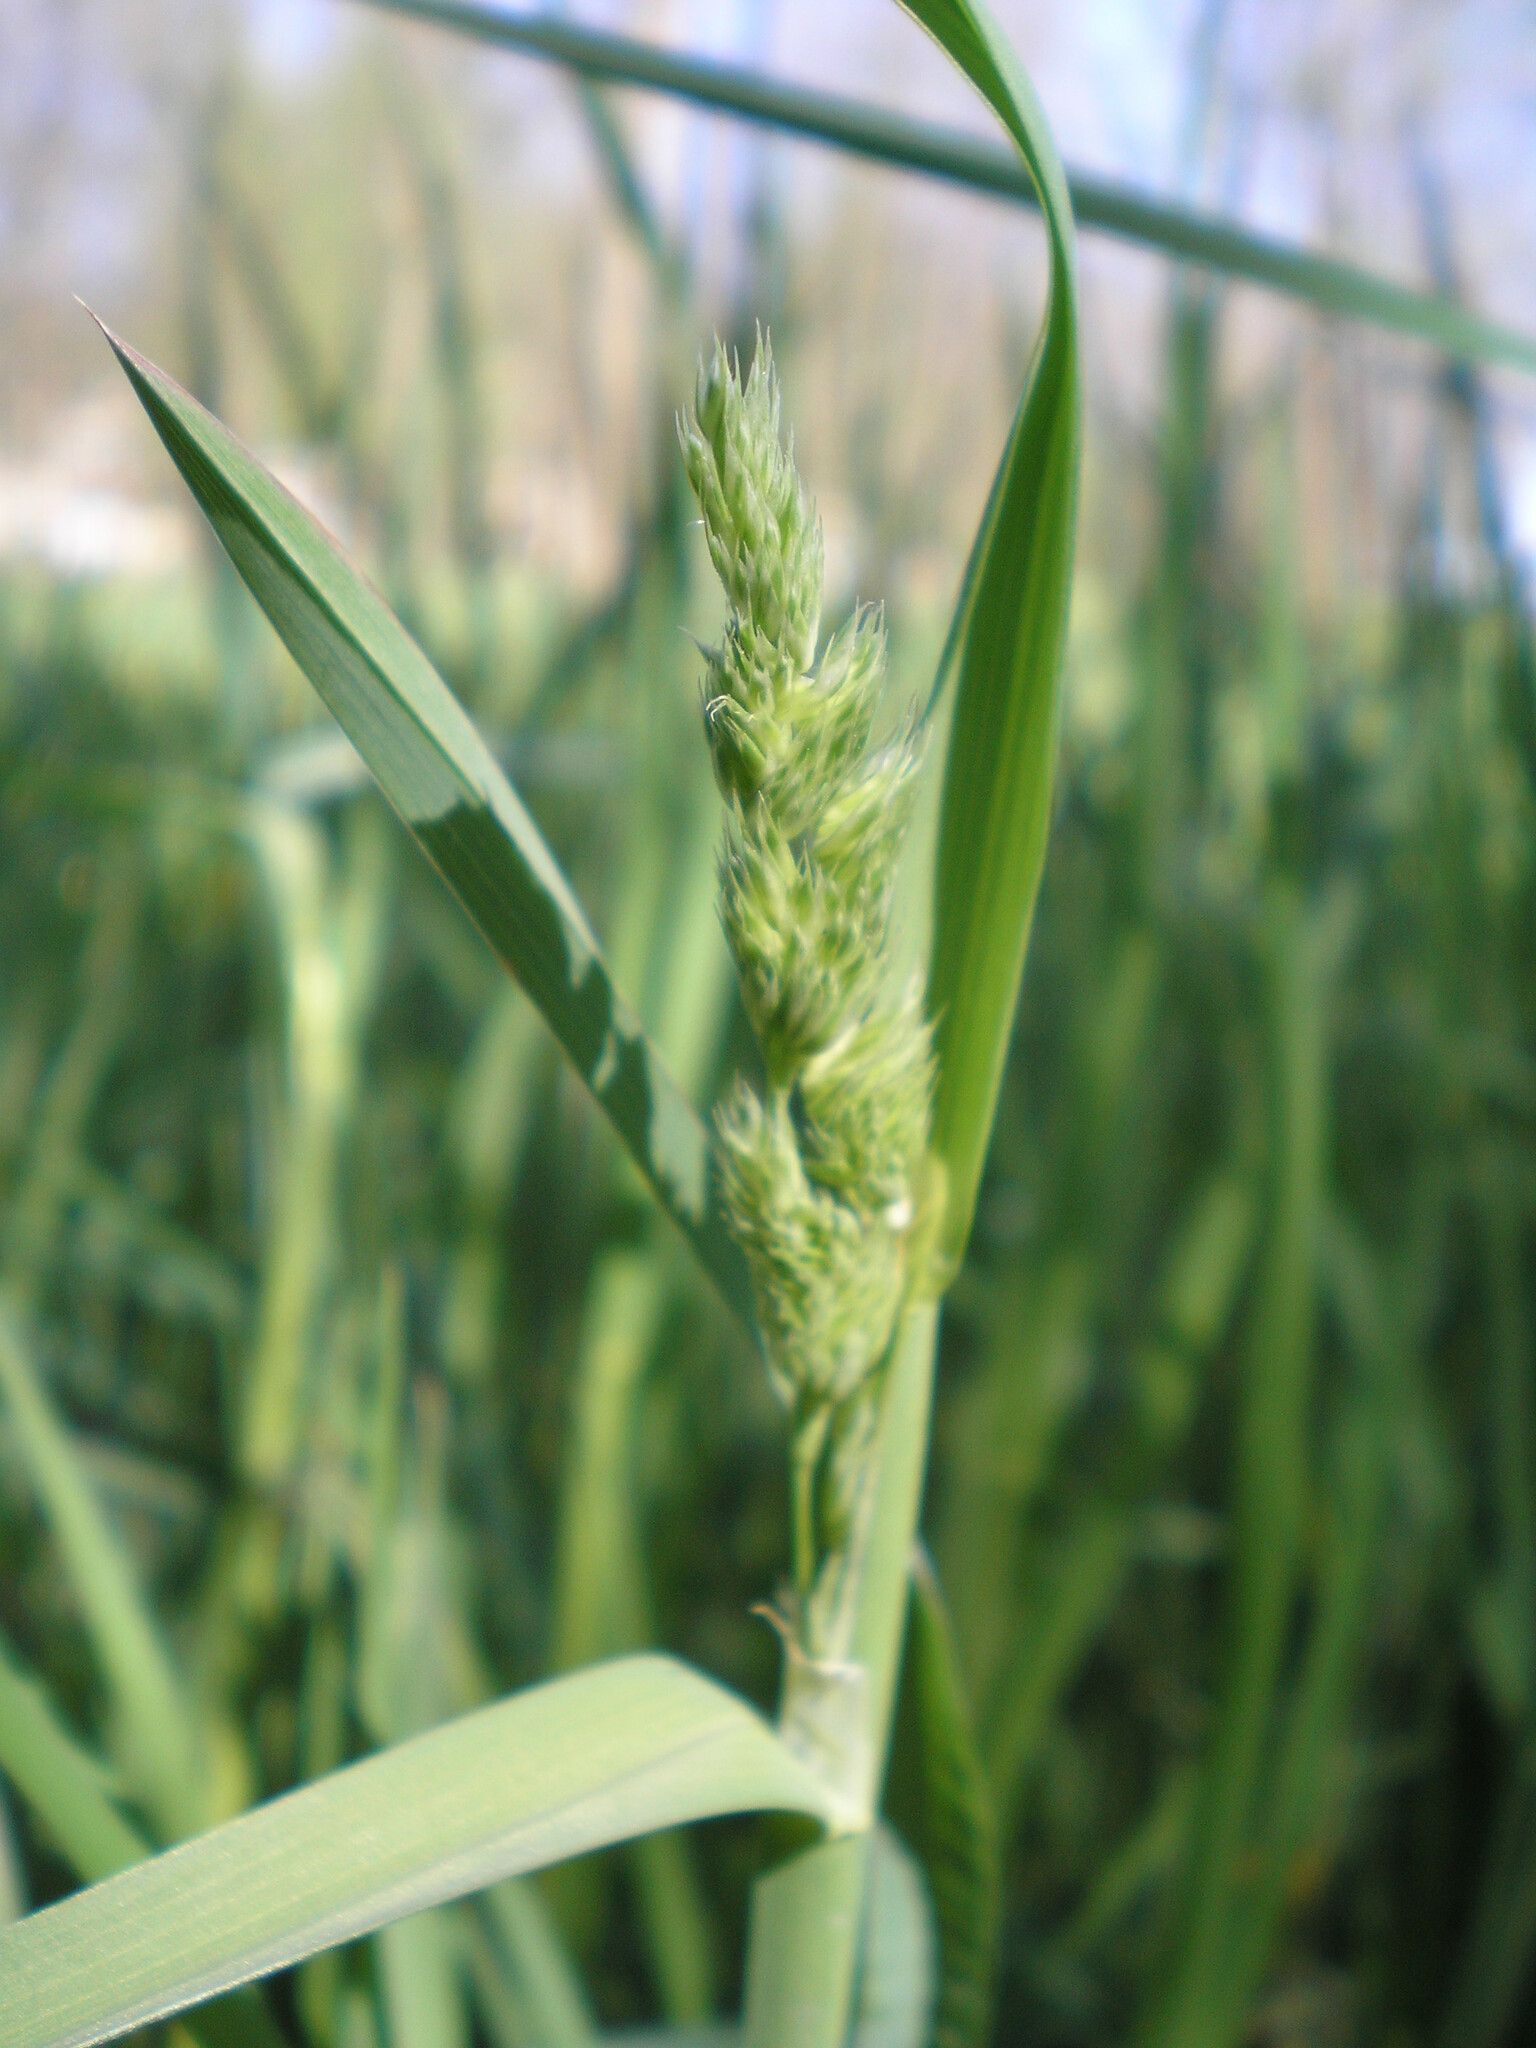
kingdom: Plantae
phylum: Tracheophyta
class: Liliopsida
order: Poales
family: Poaceae
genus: Dactylis
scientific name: Dactylis glomerata
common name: Orchardgrass
